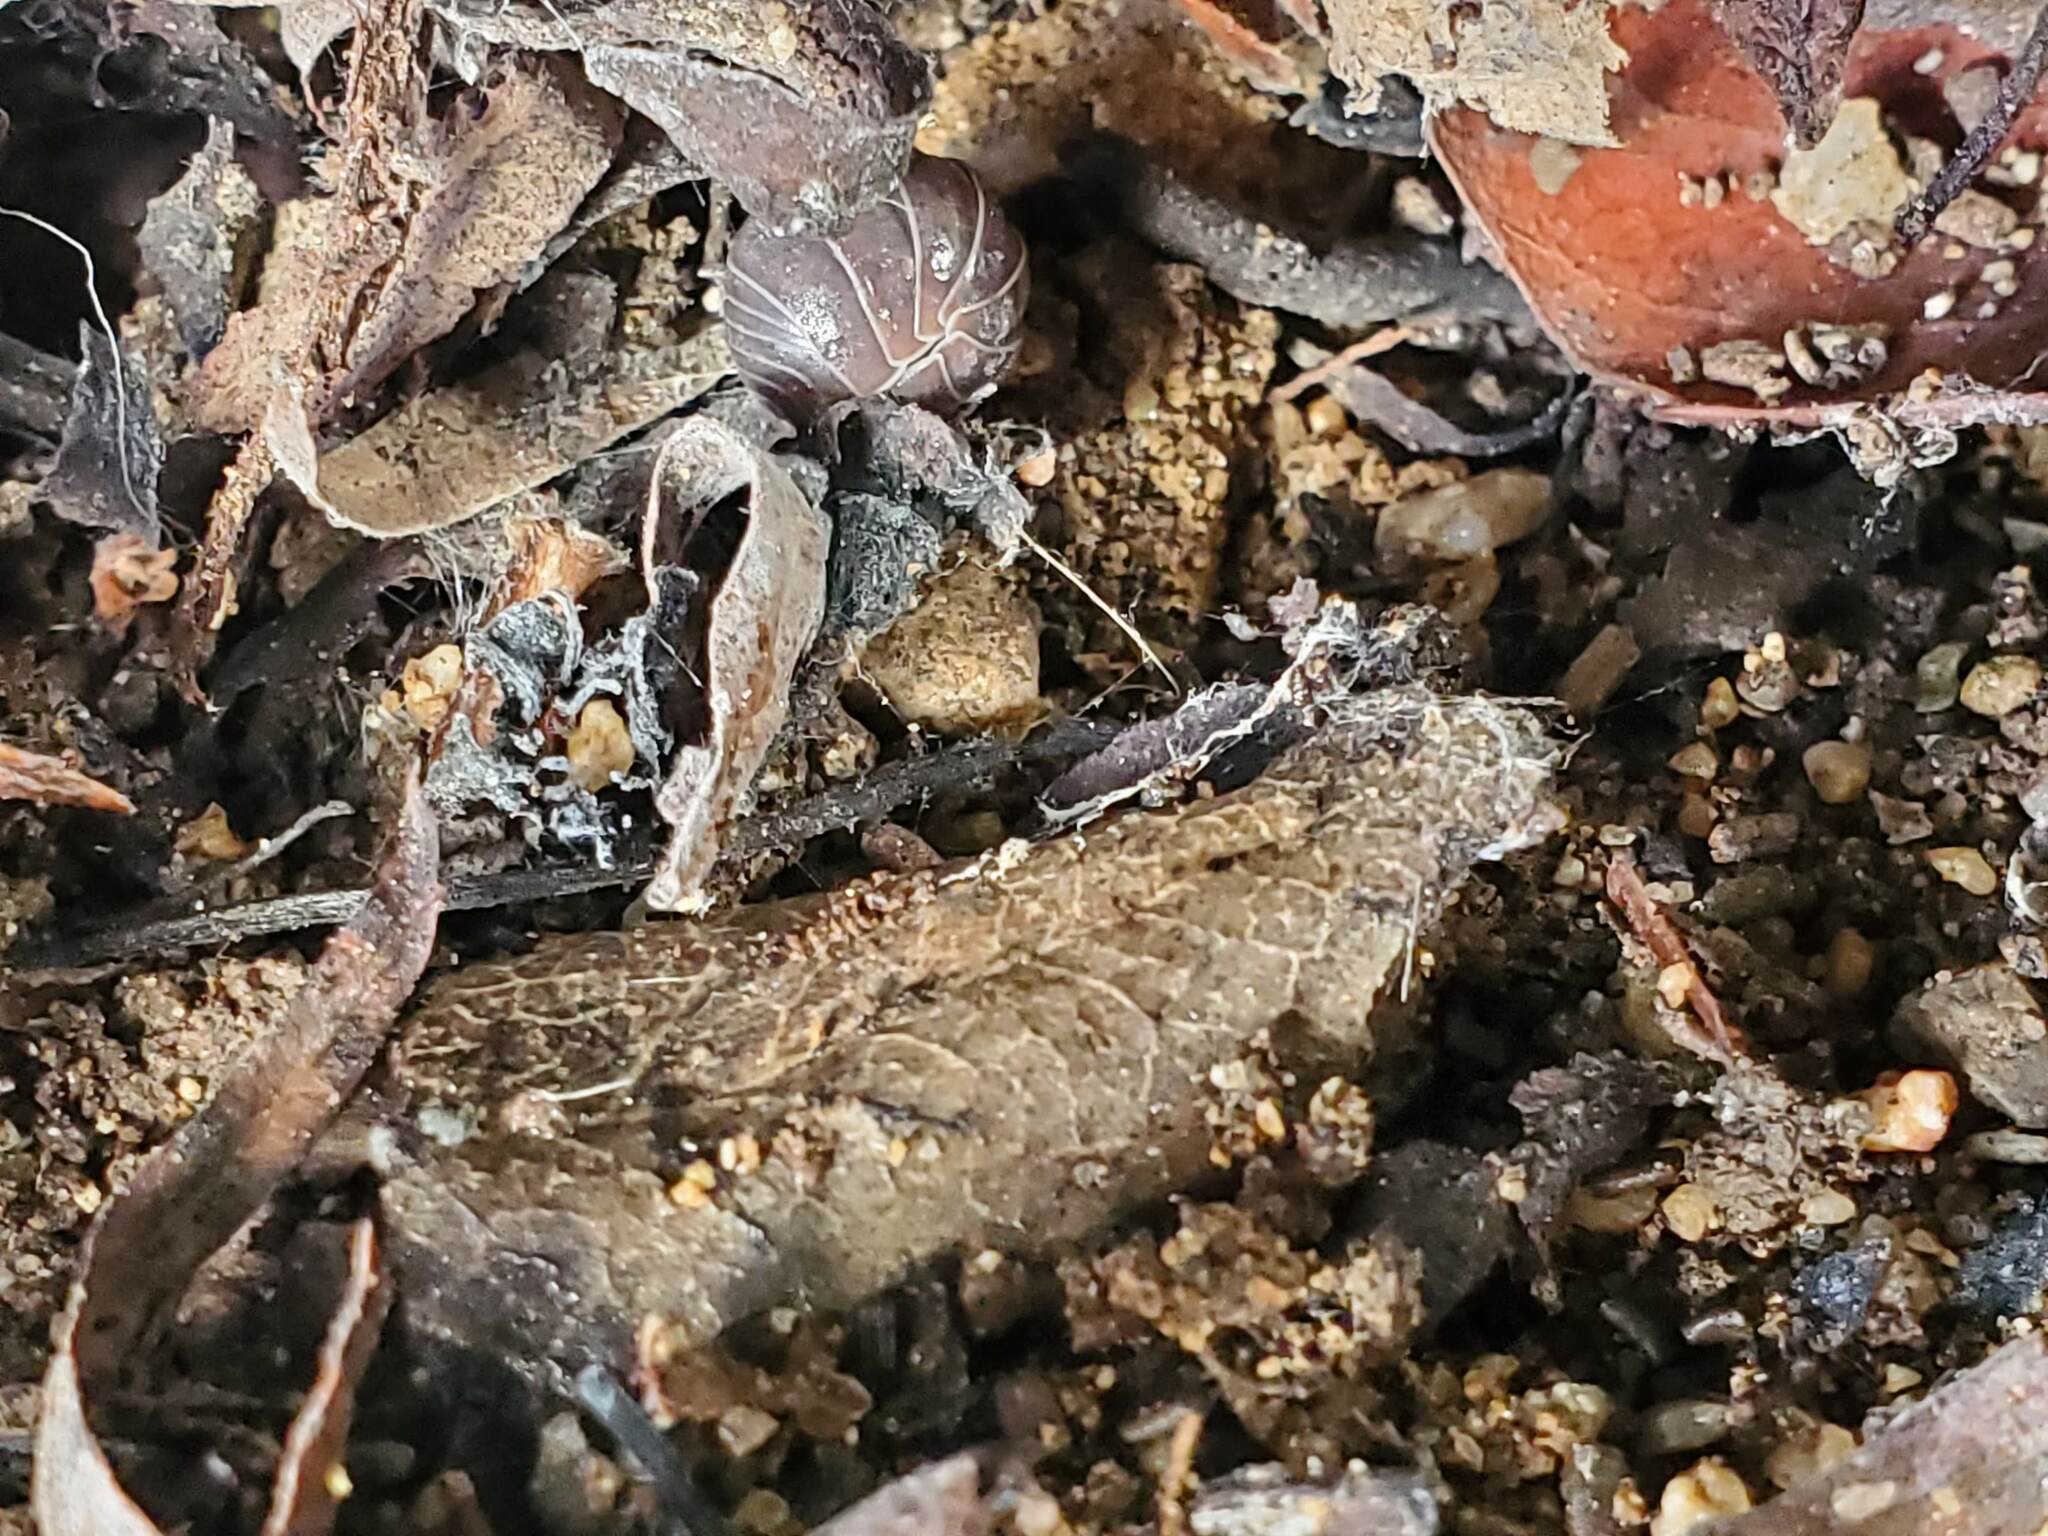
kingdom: Animalia
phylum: Arthropoda
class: Malacostraca
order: Isopoda
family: Armadillidiidae
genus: Armadillidium
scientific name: Armadillidium vulgare
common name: Common pill woodlouse
